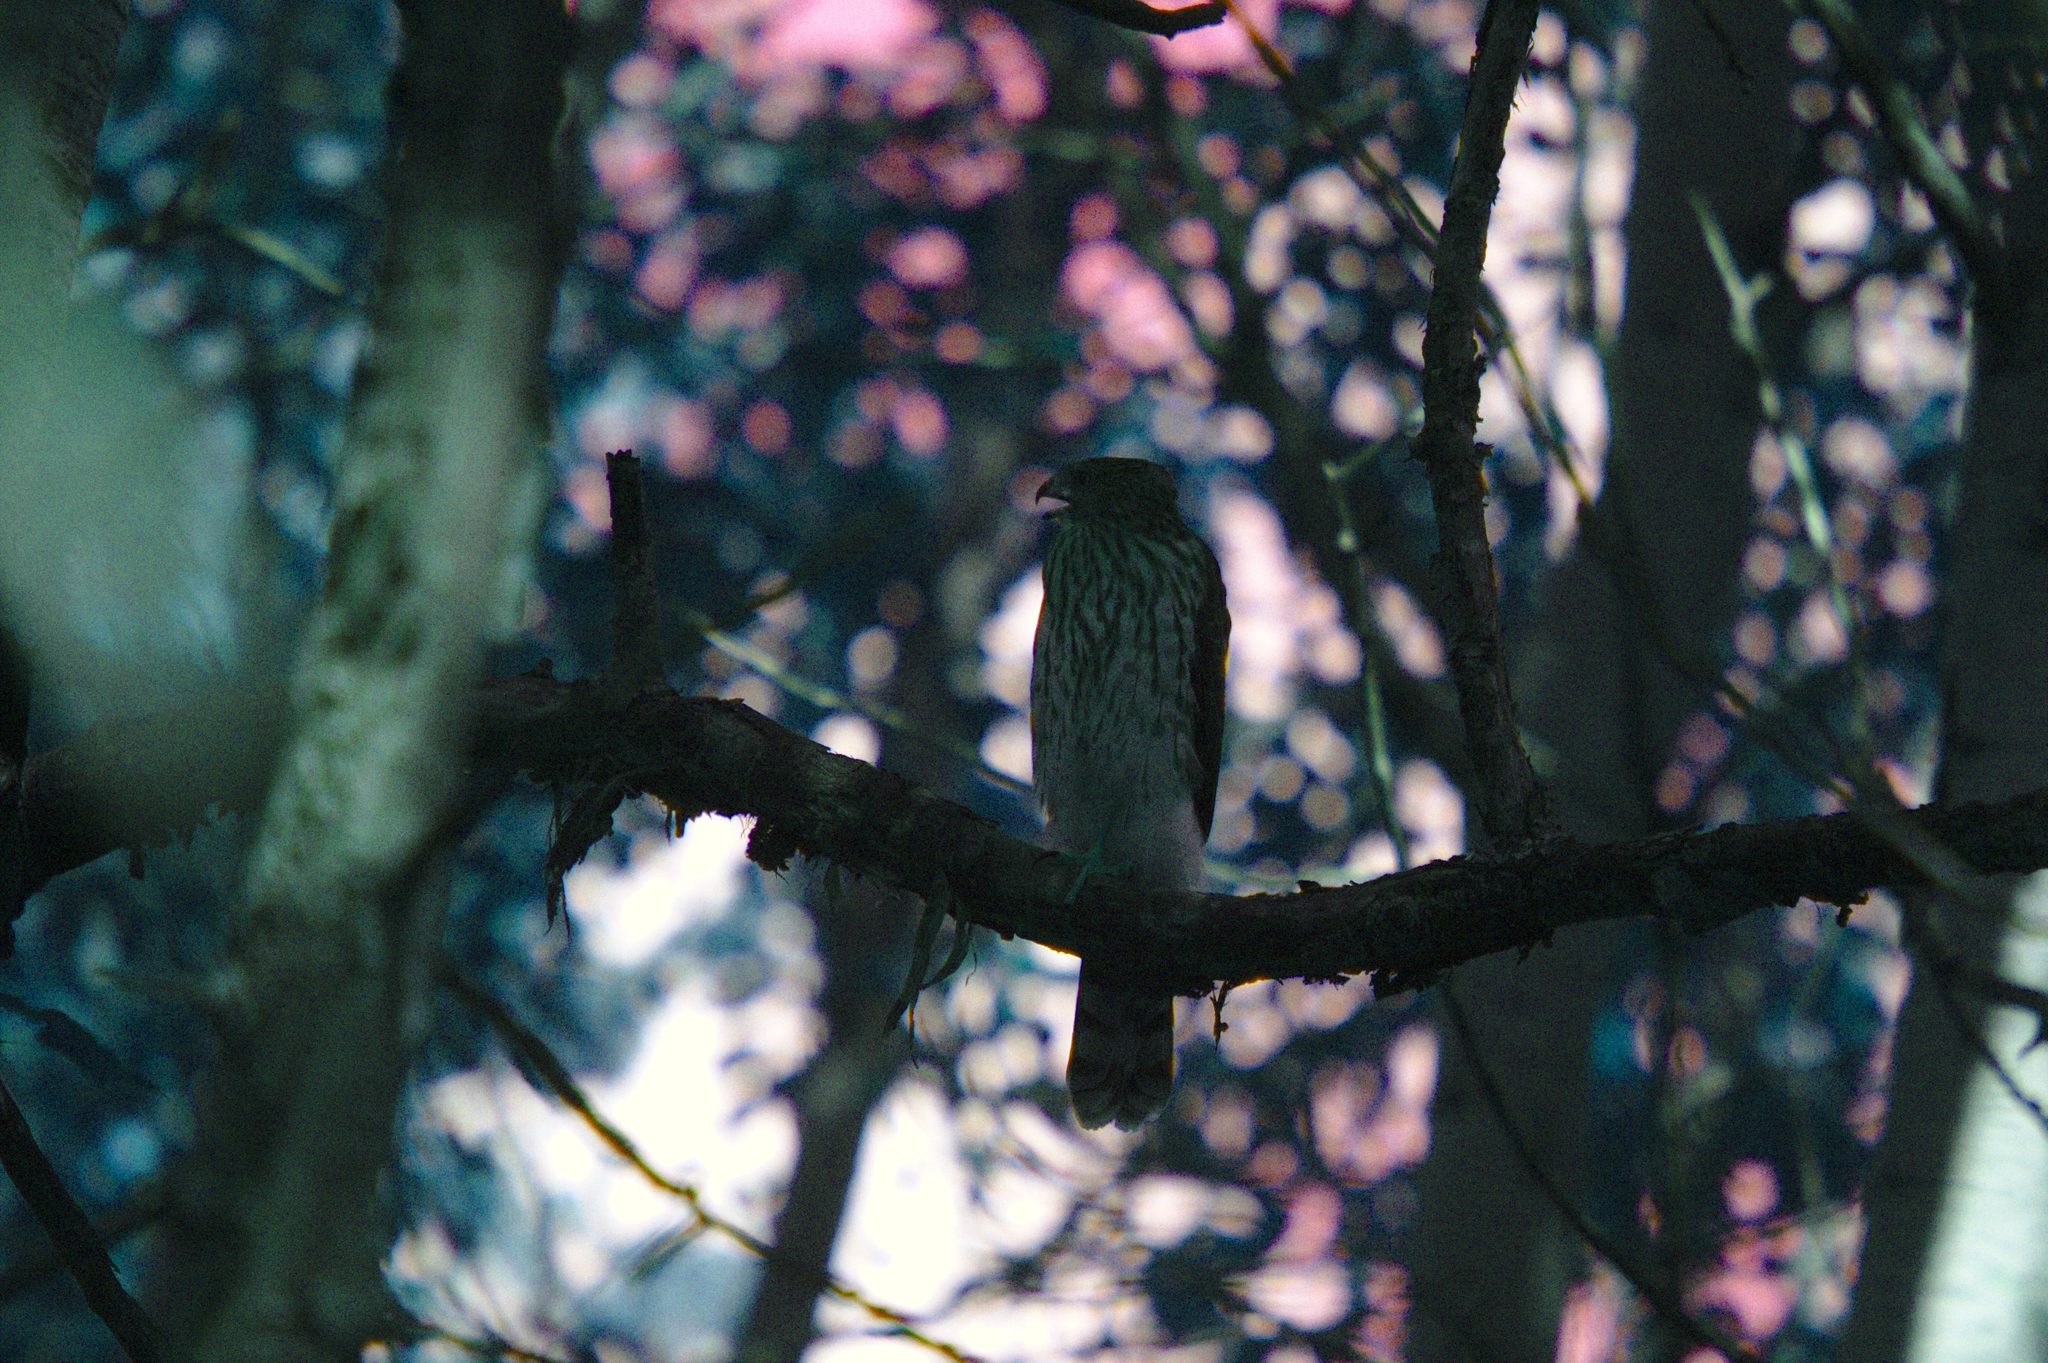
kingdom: Animalia
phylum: Chordata
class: Aves
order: Accipitriformes
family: Accipitridae
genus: Accipiter
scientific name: Accipiter cooperii
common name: Cooper's hawk
